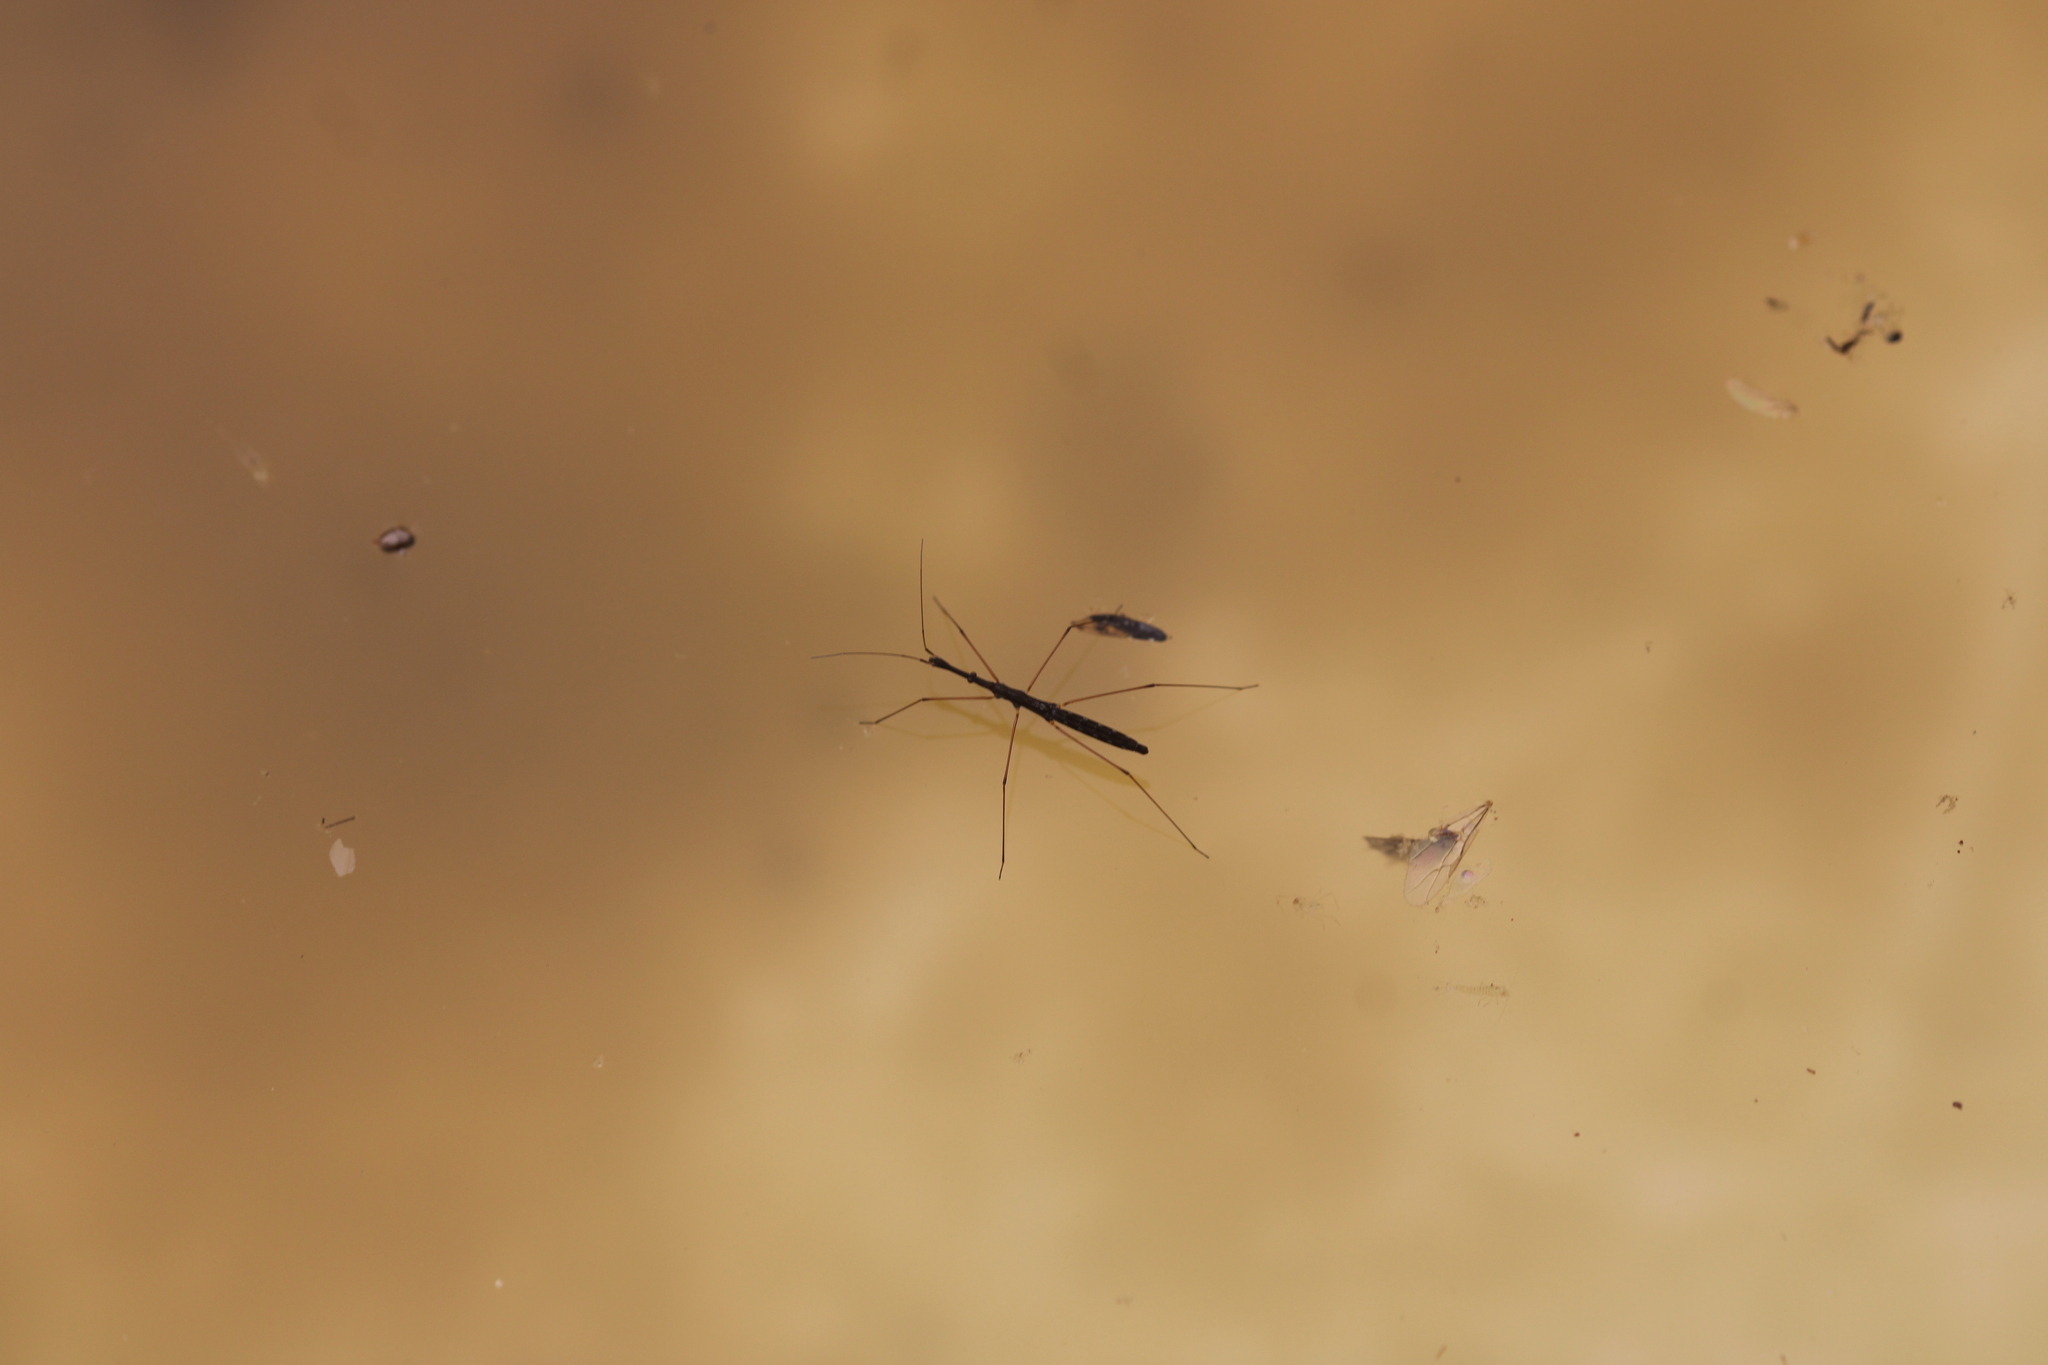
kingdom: Animalia
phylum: Arthropoda
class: Insecta
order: Hemiptera
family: Hydrometridae
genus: Hydrometra
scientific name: Hydrometra stagnorum
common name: Water measurer
